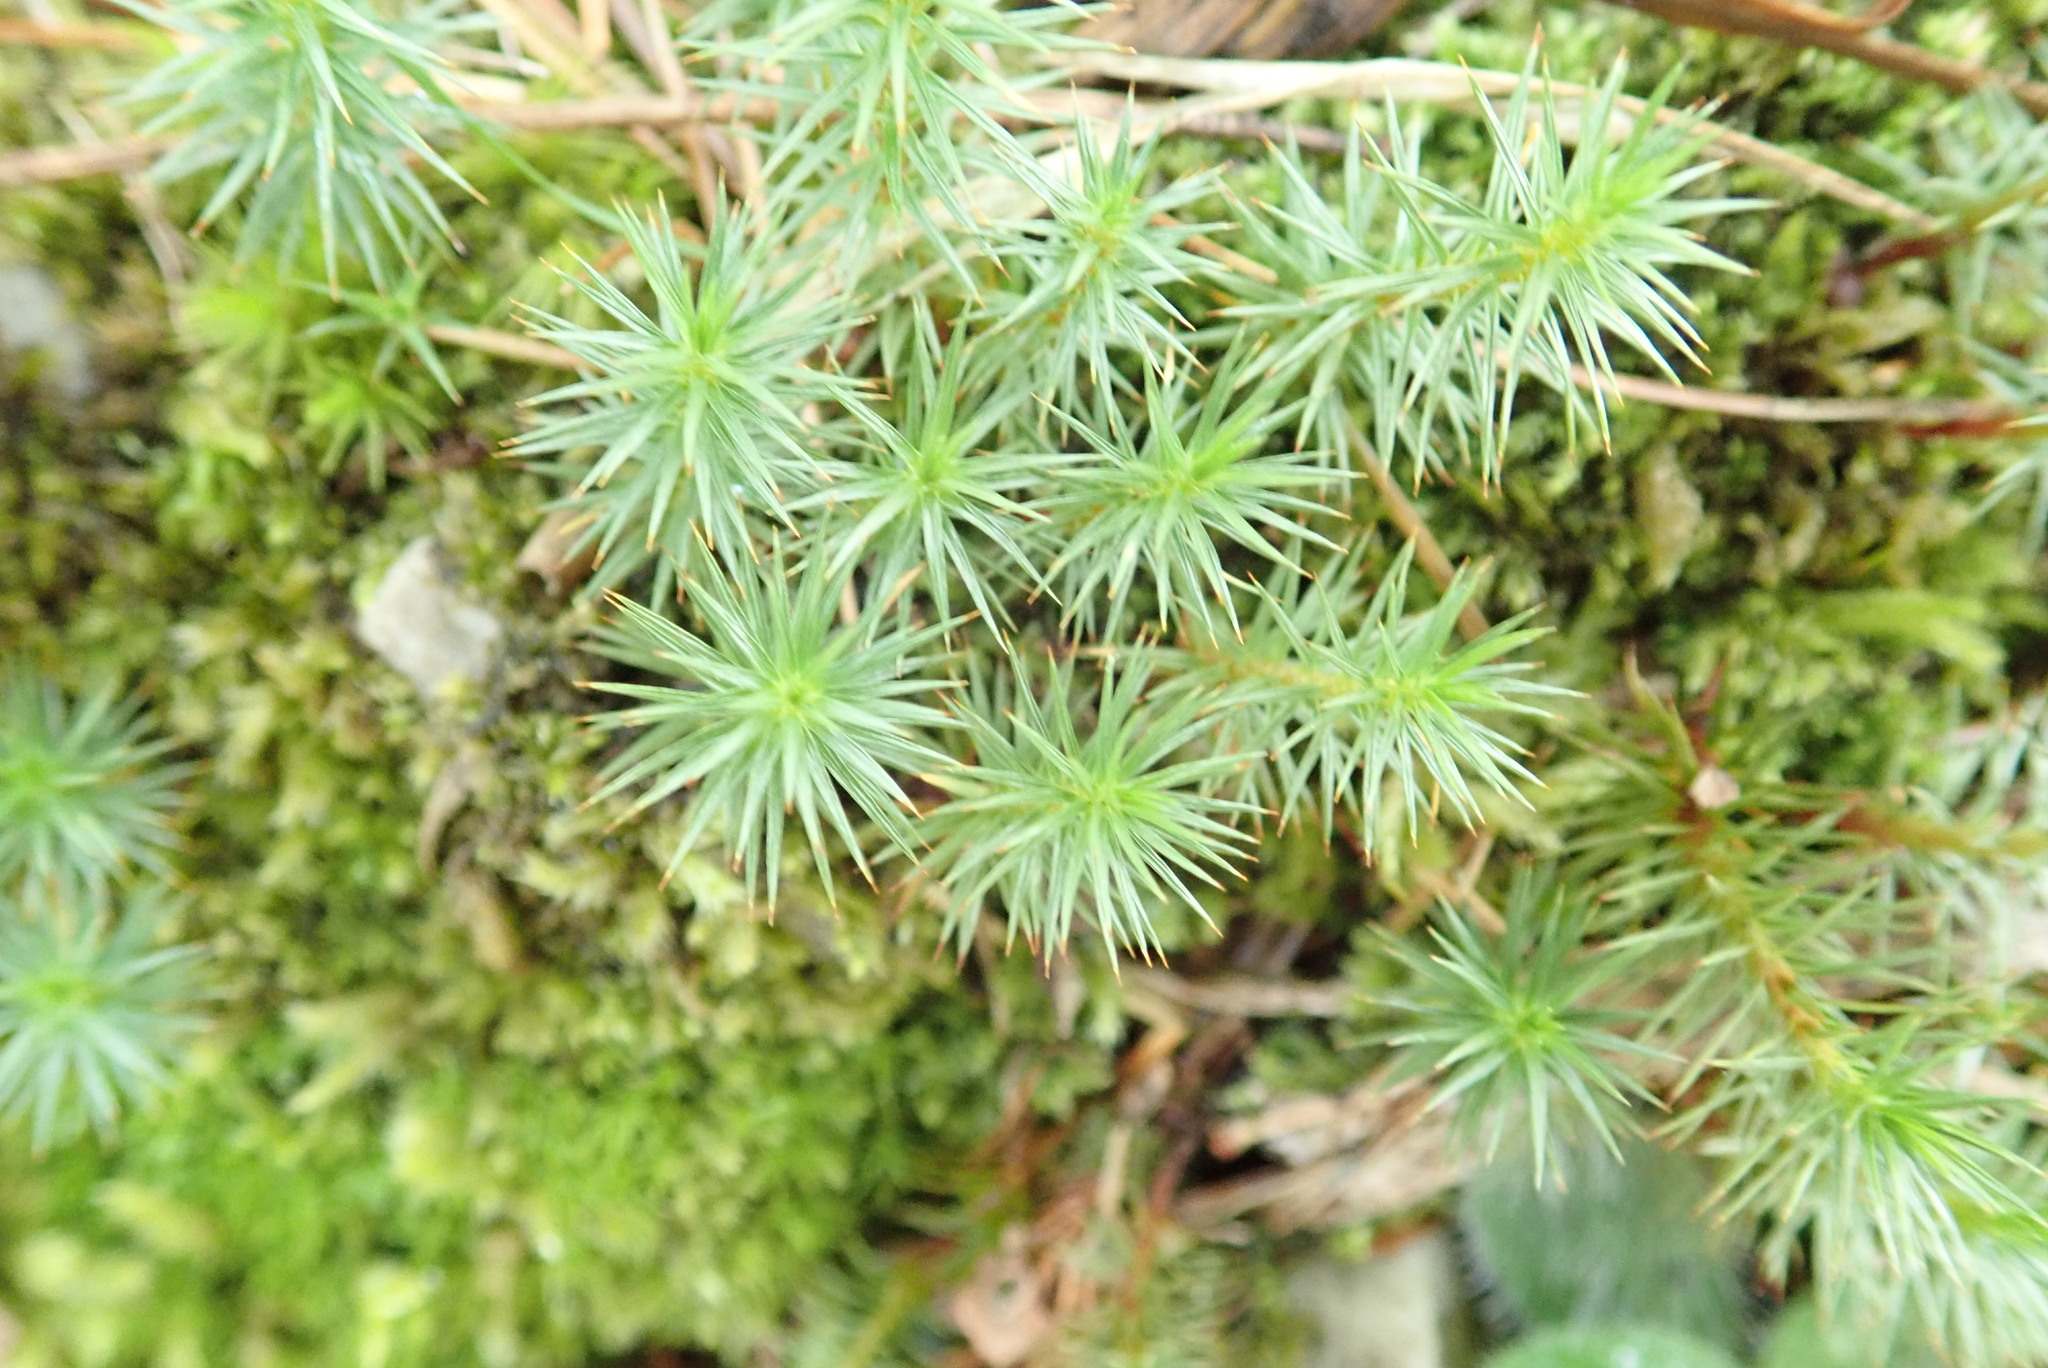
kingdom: Plantae
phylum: Bryophyta
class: Polytrichopsida
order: Polytrichales
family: Polytrichaceae
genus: Polytrichum
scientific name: Polytrichum juniperinum
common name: Juniper haircap moss
